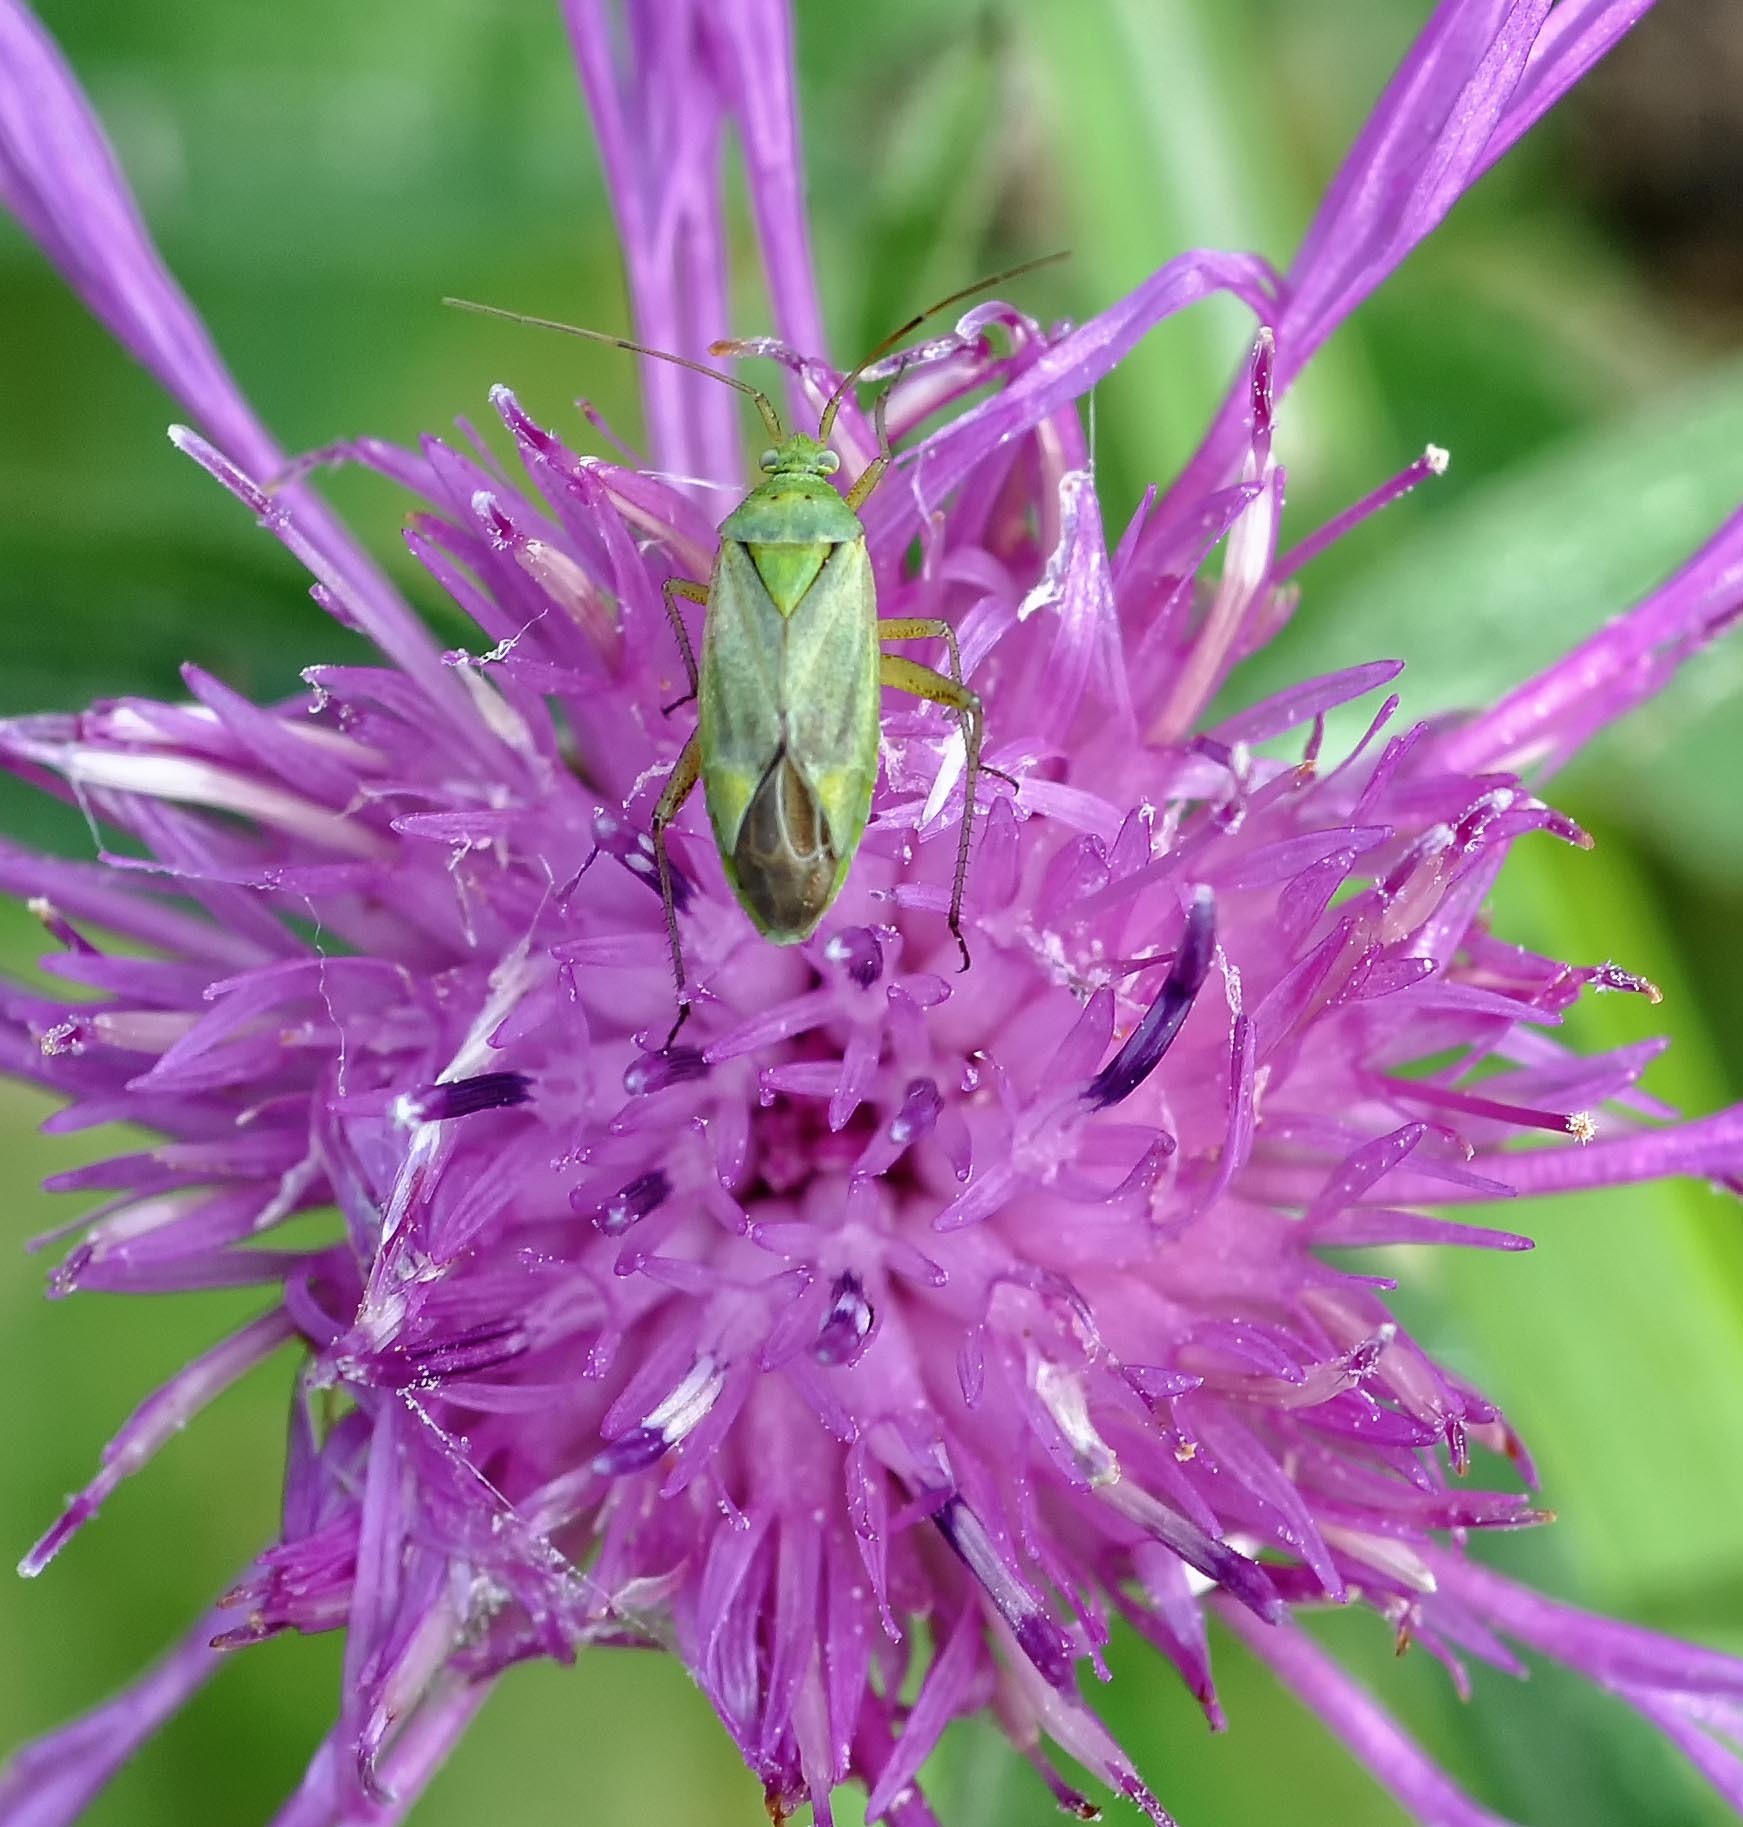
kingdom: Animalia
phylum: Arthropoda
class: Insecta
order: Hemiptera
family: Miridae
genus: Closterotomus
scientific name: Closterotomus norvegicus
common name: Plant bug
